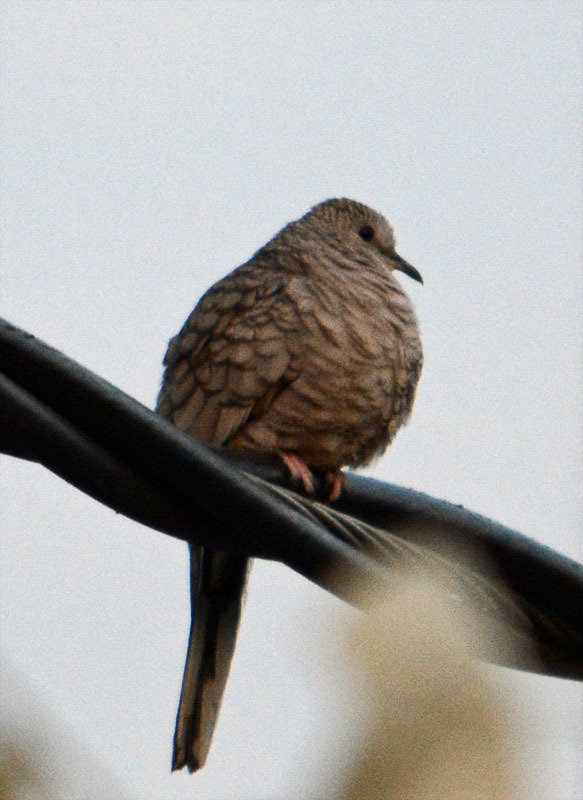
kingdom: Animalia
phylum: Chordata
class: Aves
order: Columbiformes
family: Columbidae
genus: Columbina
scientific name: Columbina inca
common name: Inca dove
